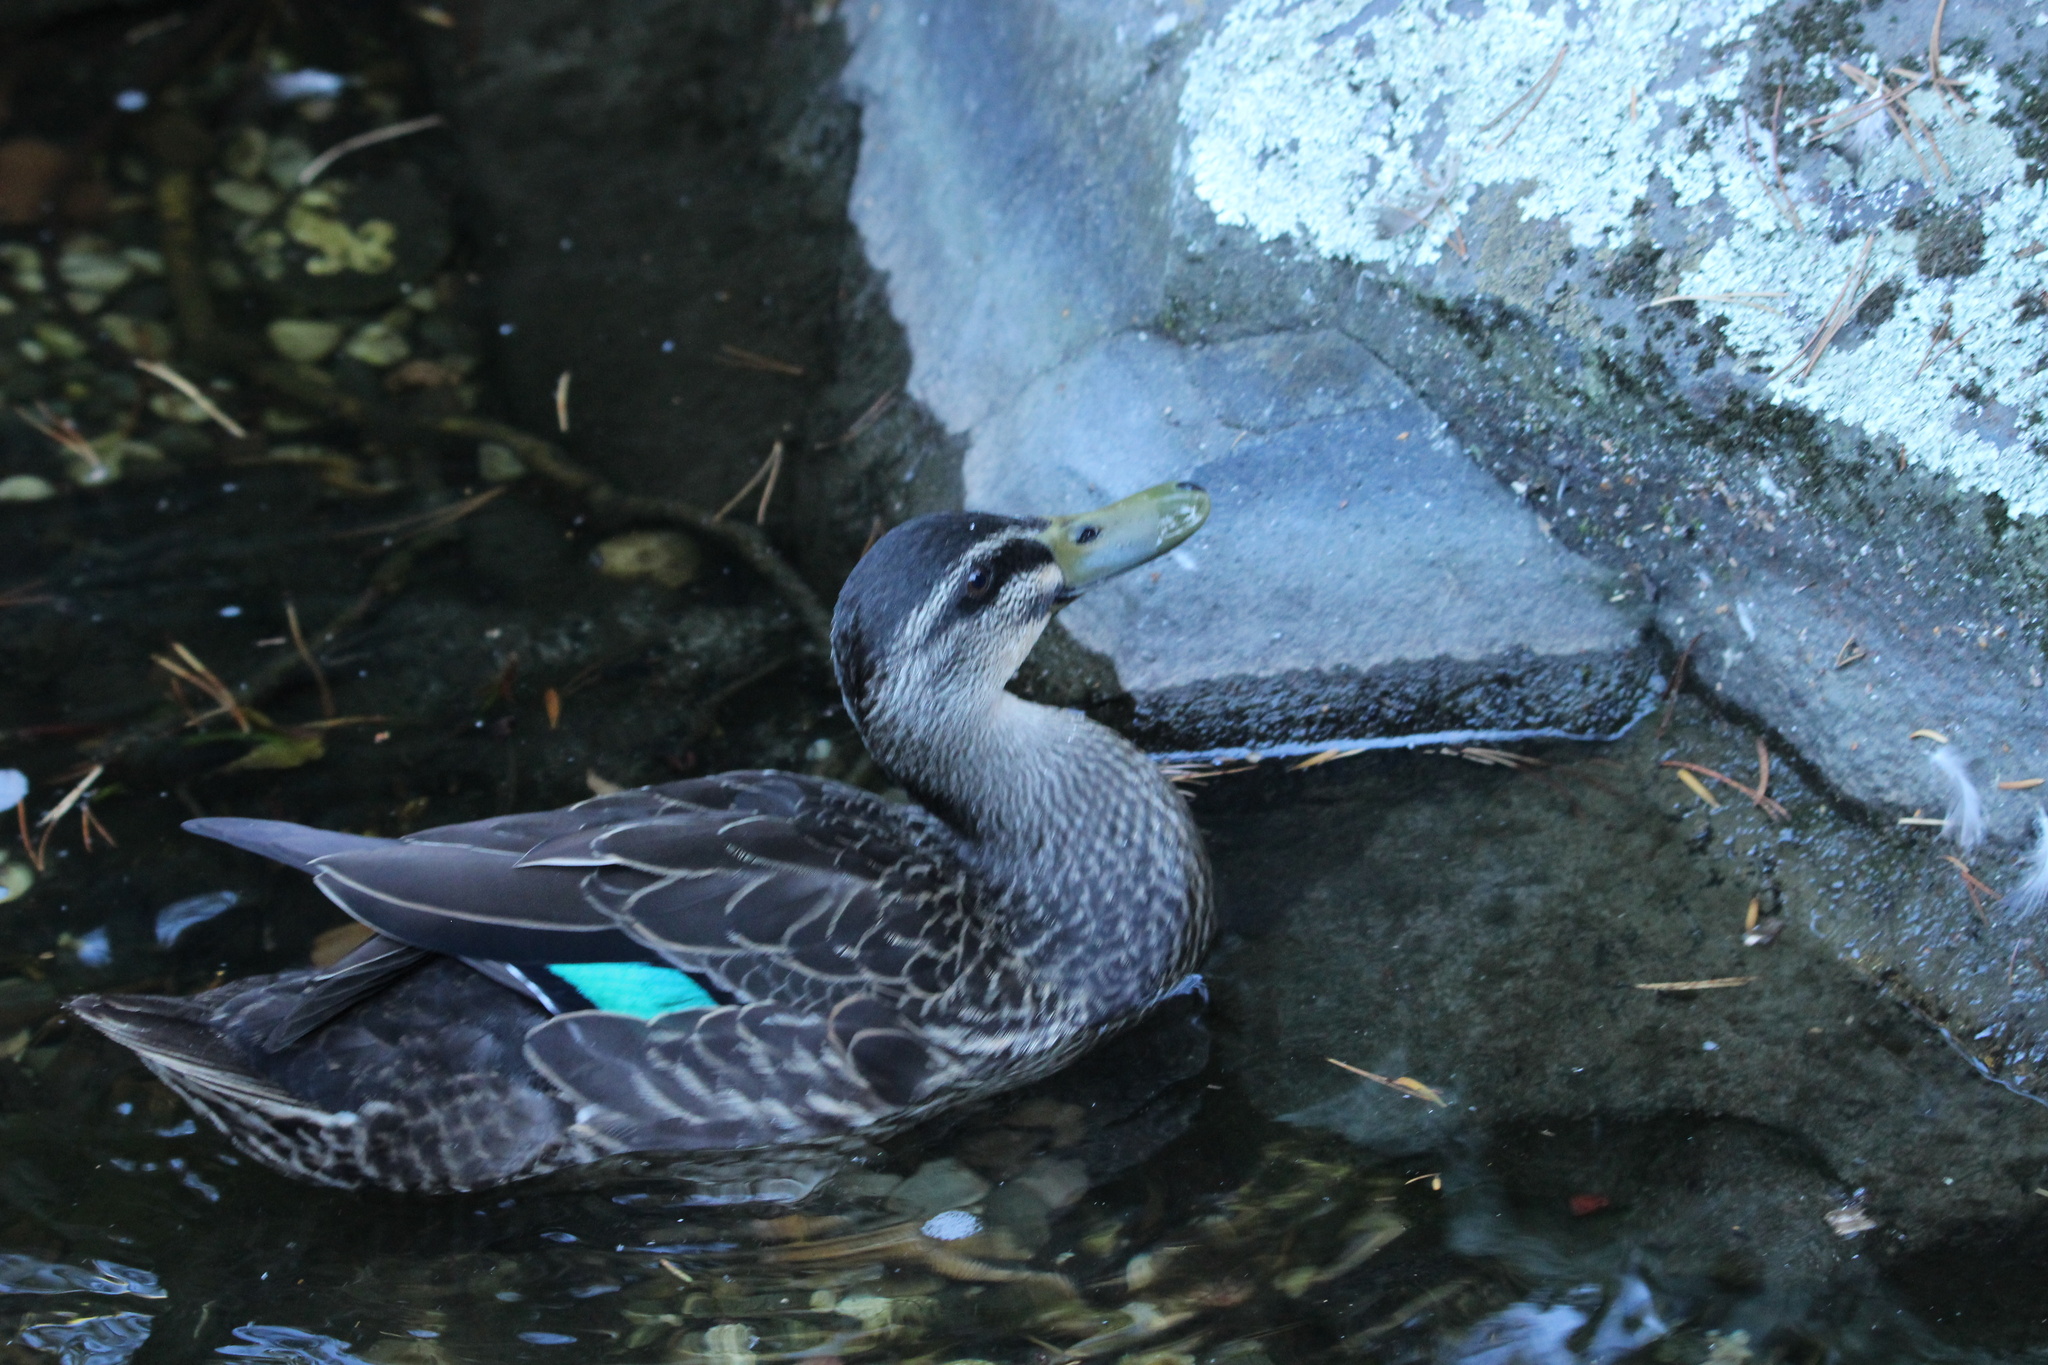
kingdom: Animalia
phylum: Chordata
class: Aves
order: Anseriformes
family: Anatidae
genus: Anas
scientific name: Anas
